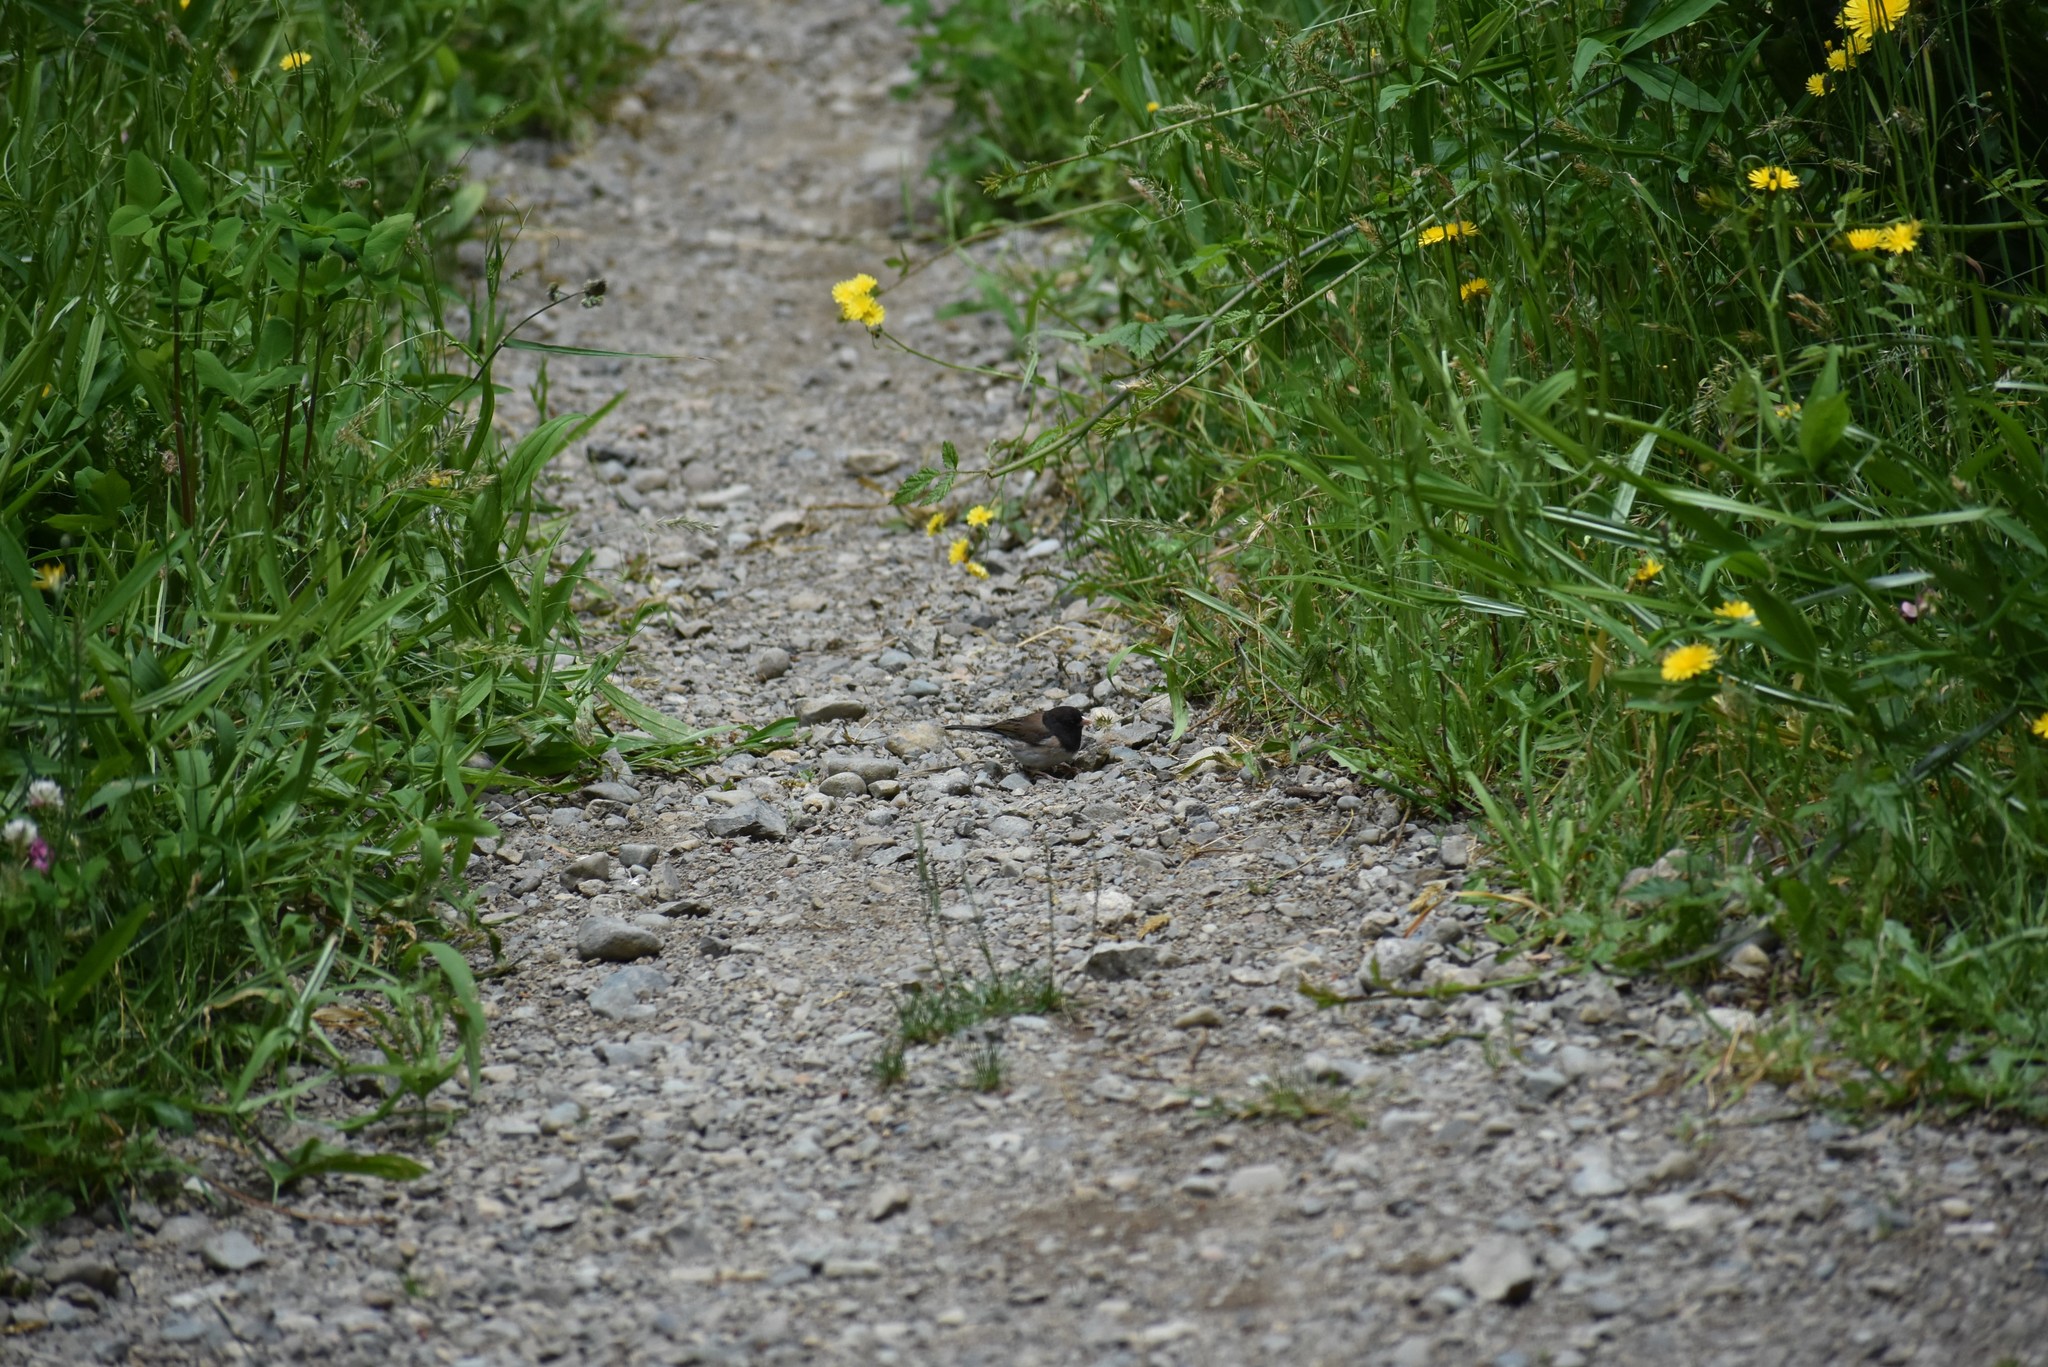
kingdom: Animalia
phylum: Chordata
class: Aves
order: Passeriformes
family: Passerellidae
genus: Junco
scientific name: Junco hyemalis
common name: Dark-eyed junco
